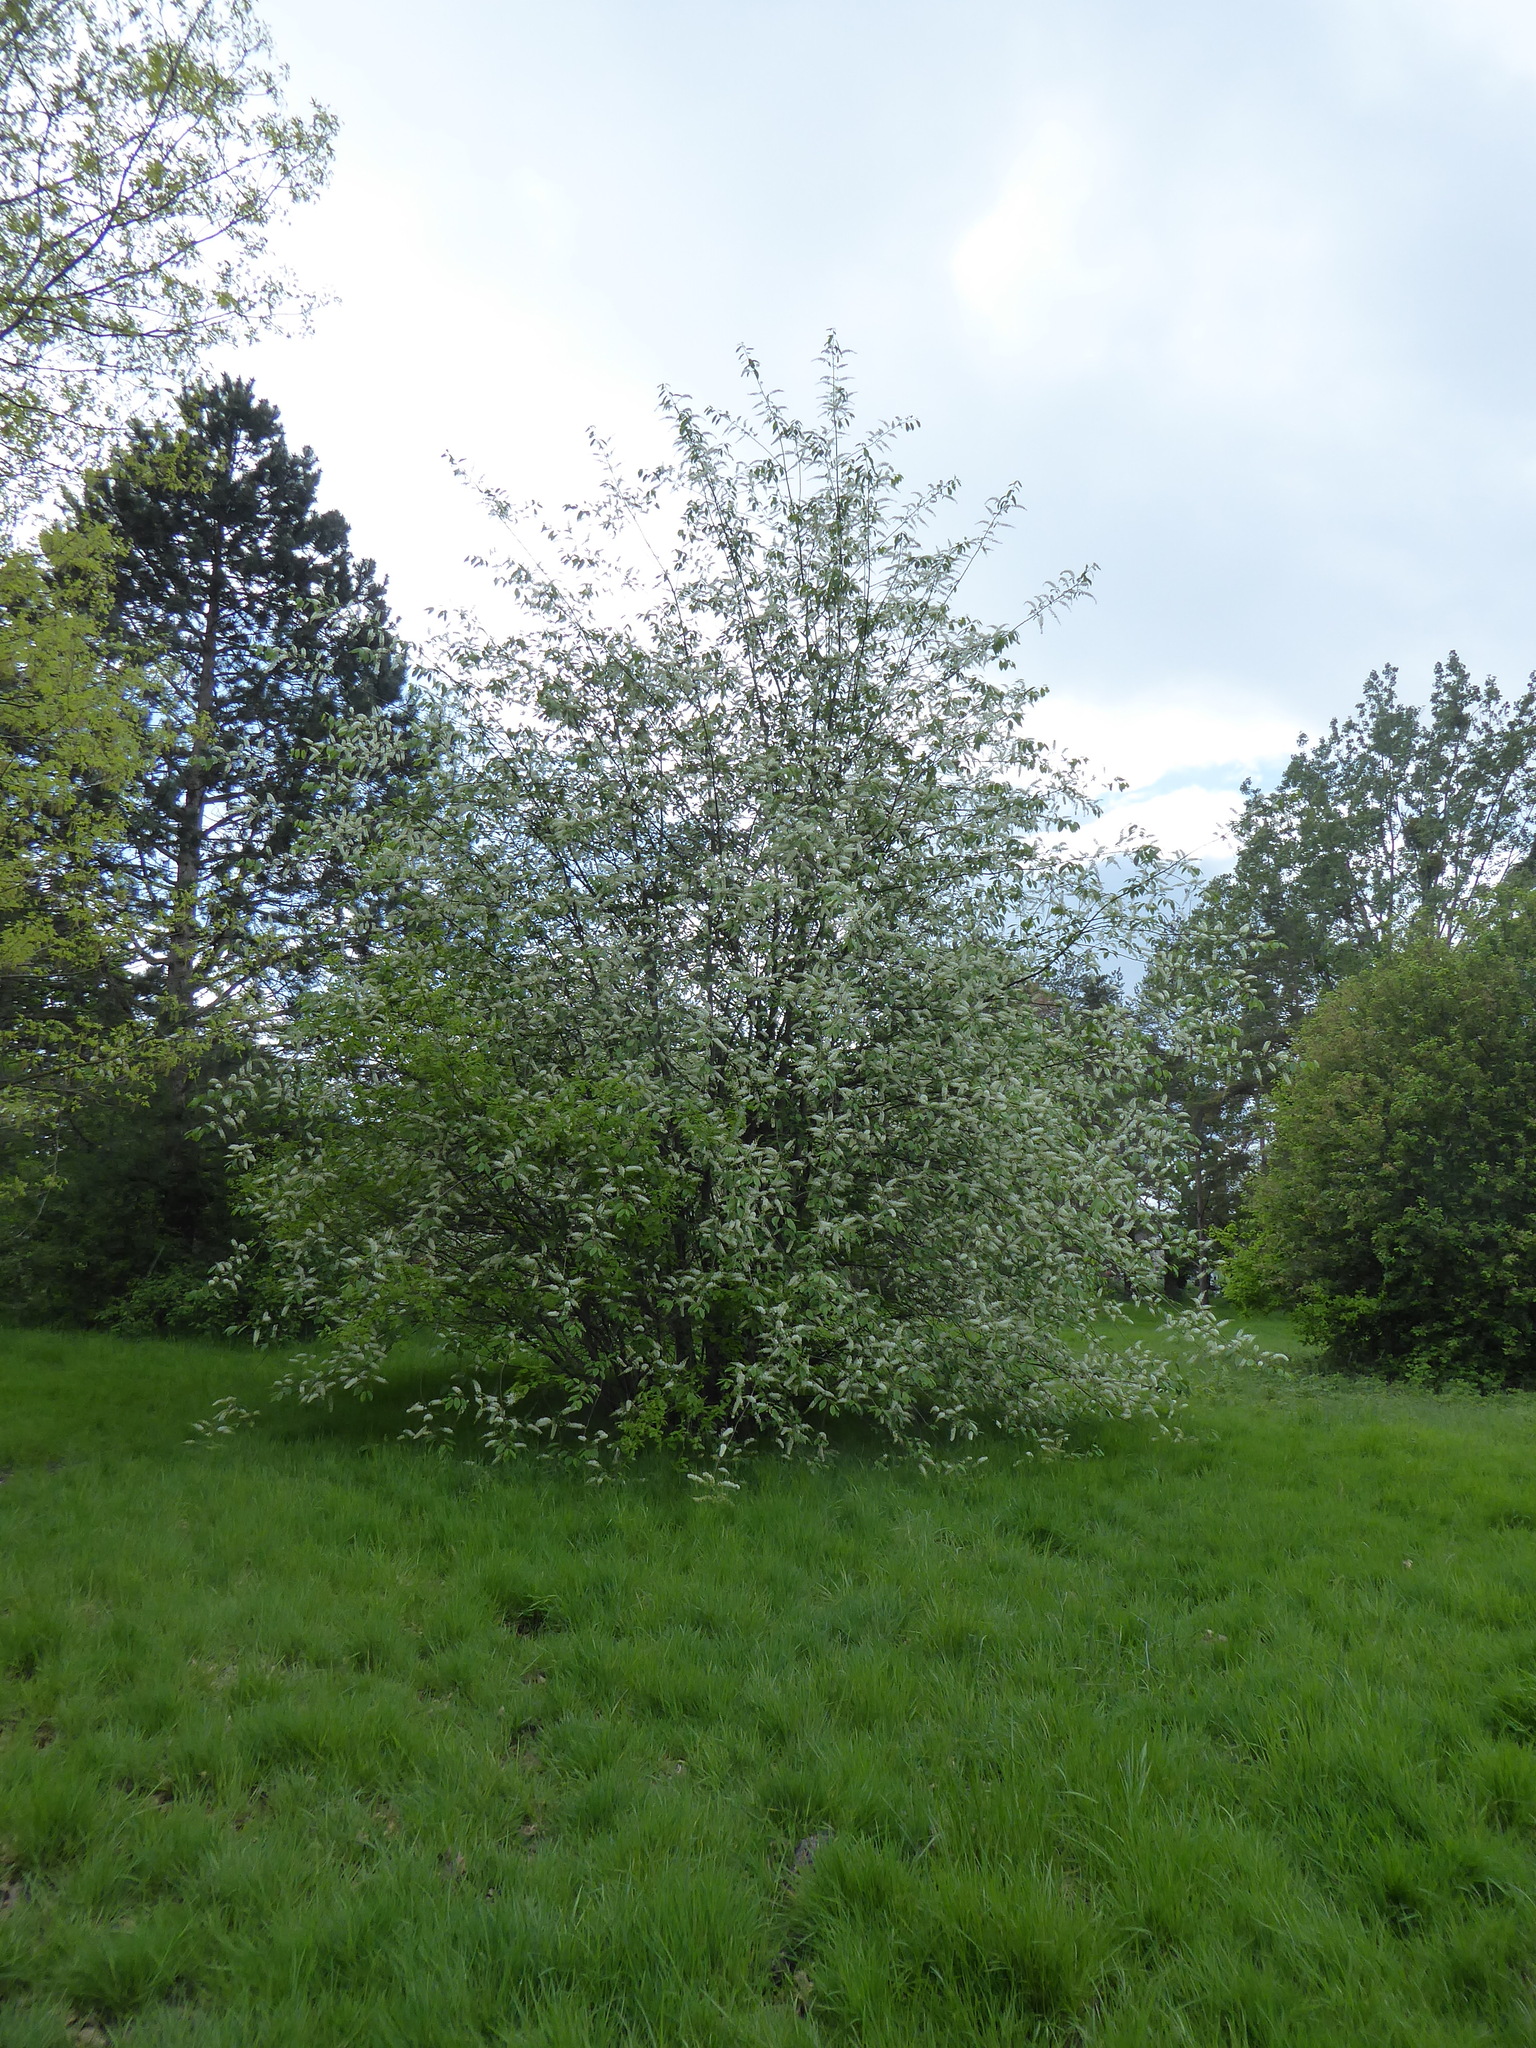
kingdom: Plantae
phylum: Tracheophyta
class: Magnoliopsida
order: Rosales
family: Rosaceae
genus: Prunus
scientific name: Prunus padus
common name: Bird cherry
